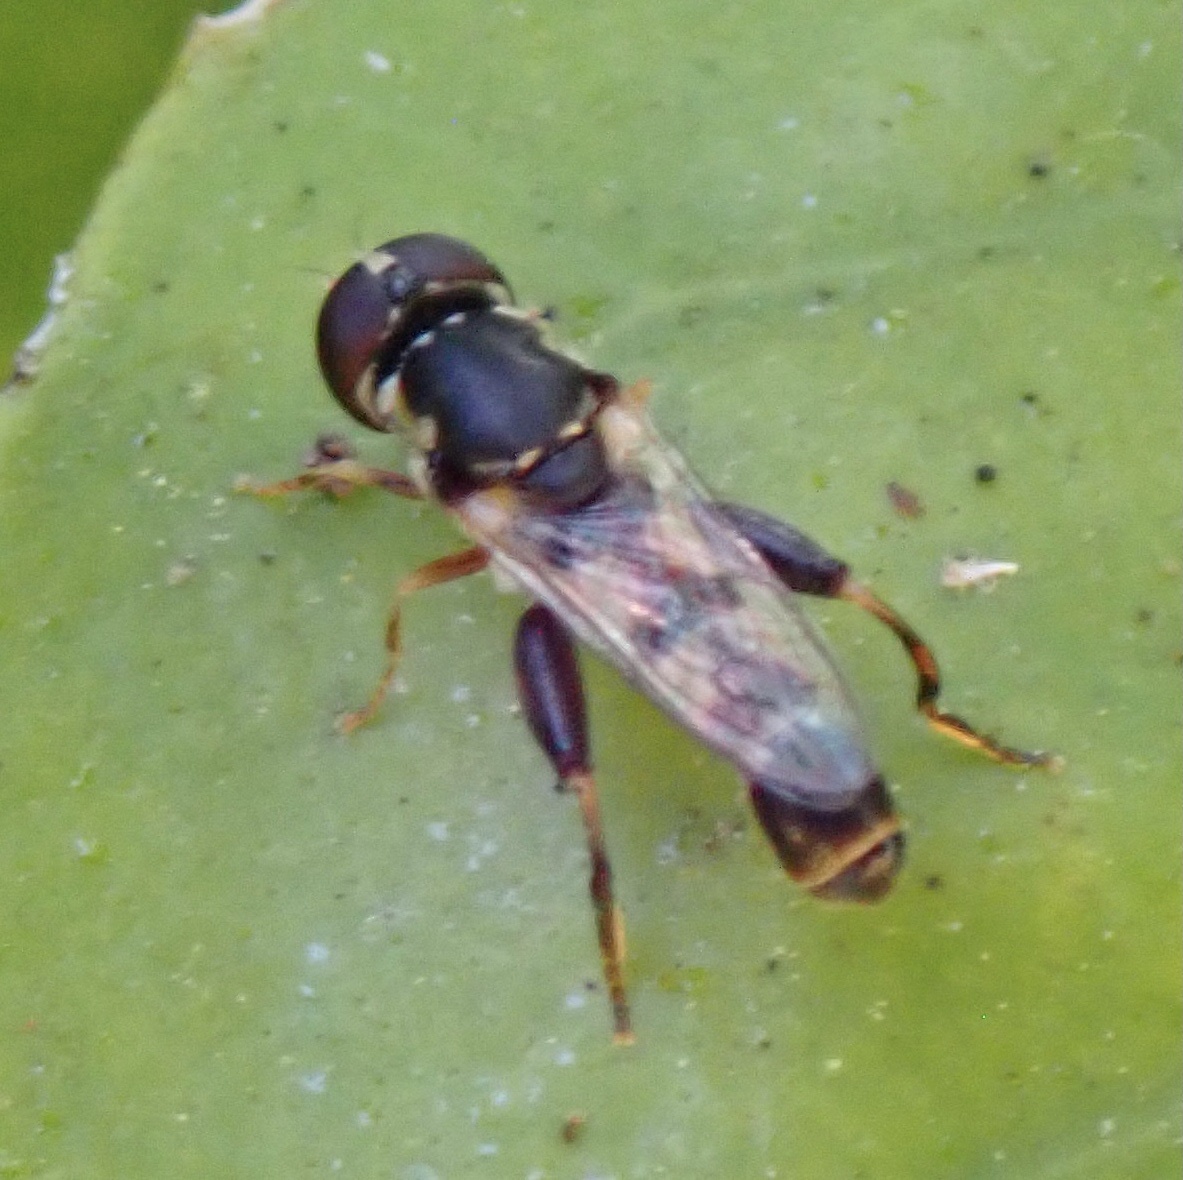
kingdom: Animalia
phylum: Arthropoda
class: Insecta
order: Diptera
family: Syrphidae
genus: Syritta
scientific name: Syritta pipiens
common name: Hover fly
